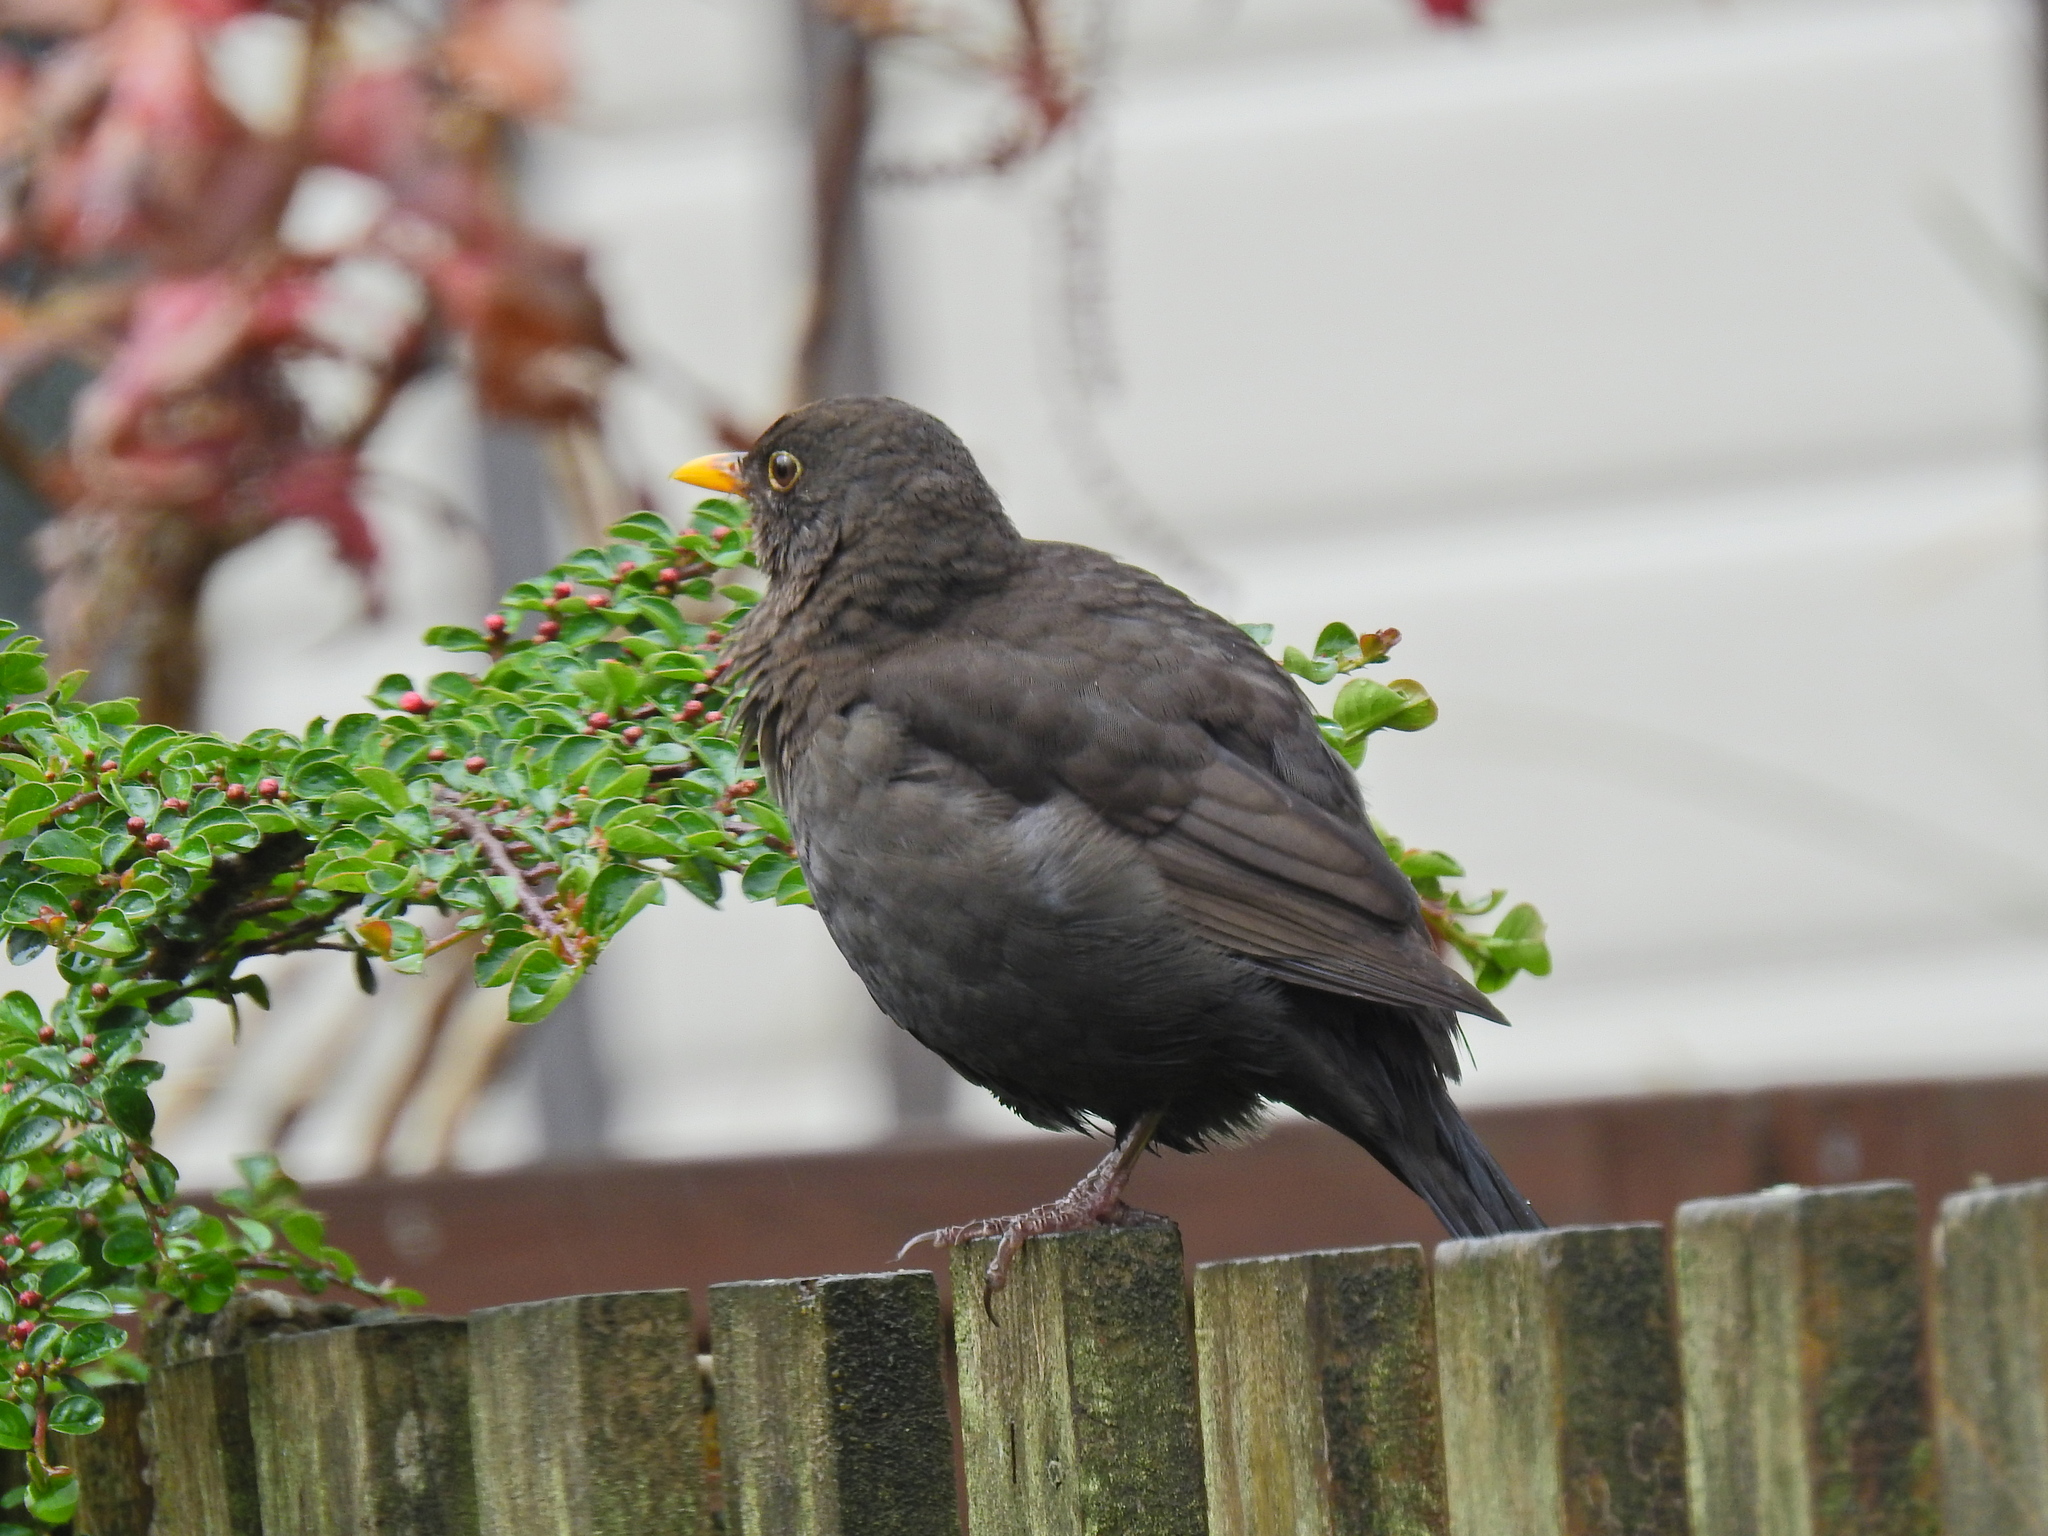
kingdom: Animalia
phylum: Chordata
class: Aves
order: Passeriformes
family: Turdidae
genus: Turdus
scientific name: Turdus merula
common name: Common blackbird
